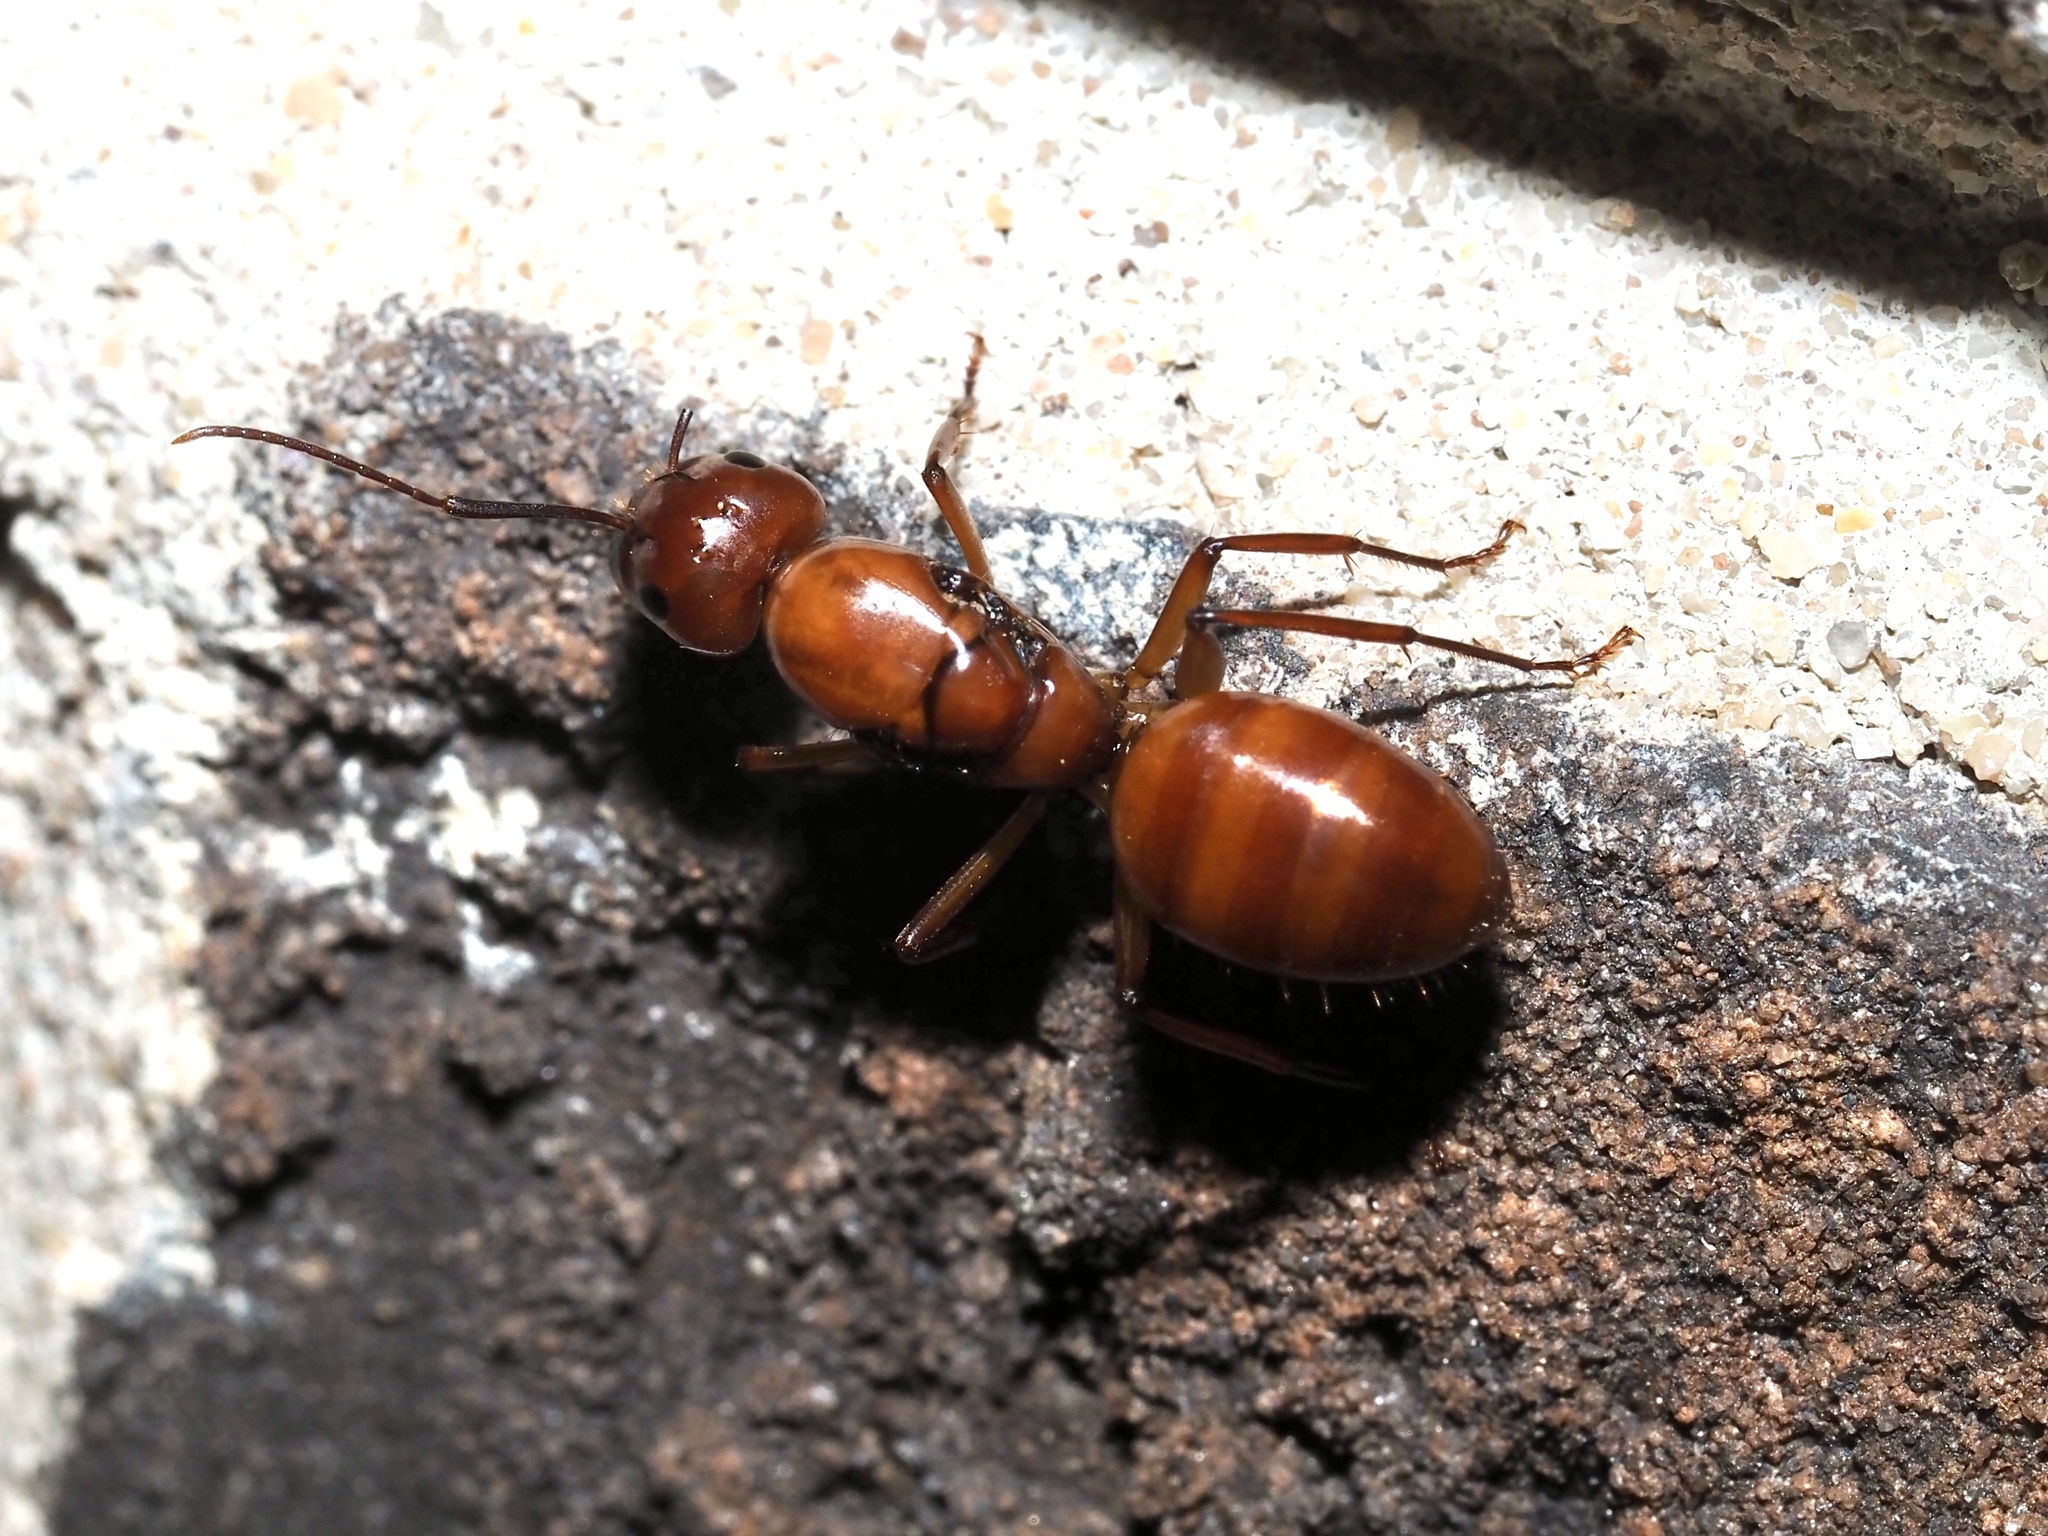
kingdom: Animalia
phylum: Arthropoda
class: Insecta
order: Hymenoptera
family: Formicidae
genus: Camponotus
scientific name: Camponotus castaneus
